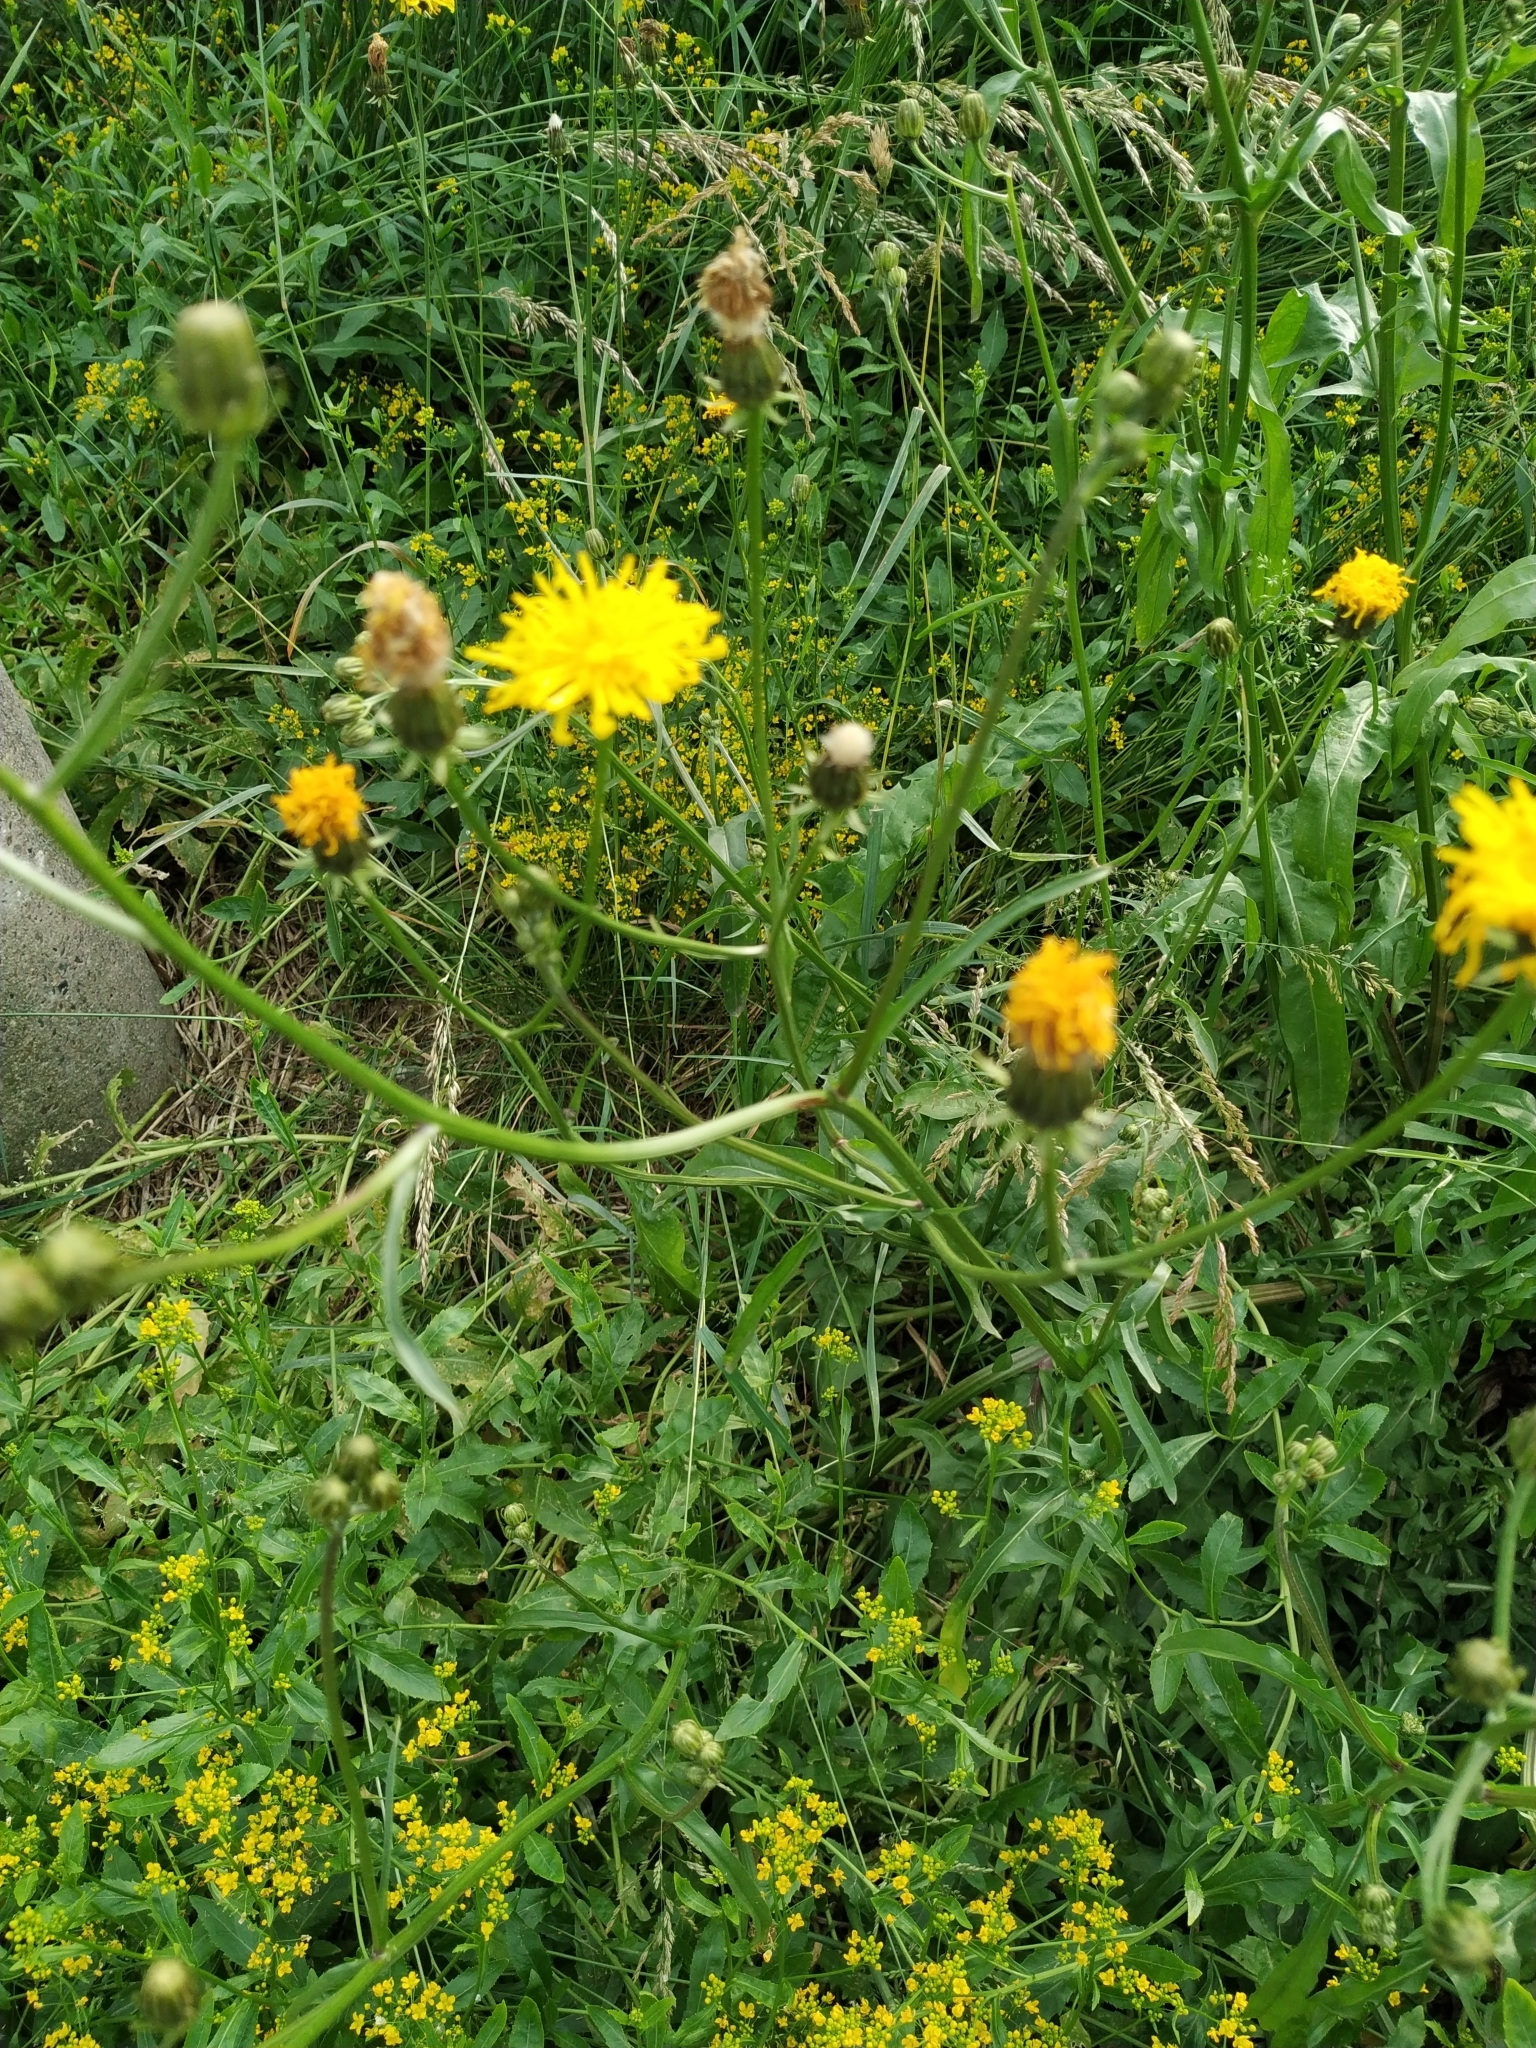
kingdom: Plantae
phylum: Tracheophyta
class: Magnoliopsida
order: Asterales
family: Asteraceae
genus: Crepis
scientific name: Crepis biennis
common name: Rough hawk's-beard
